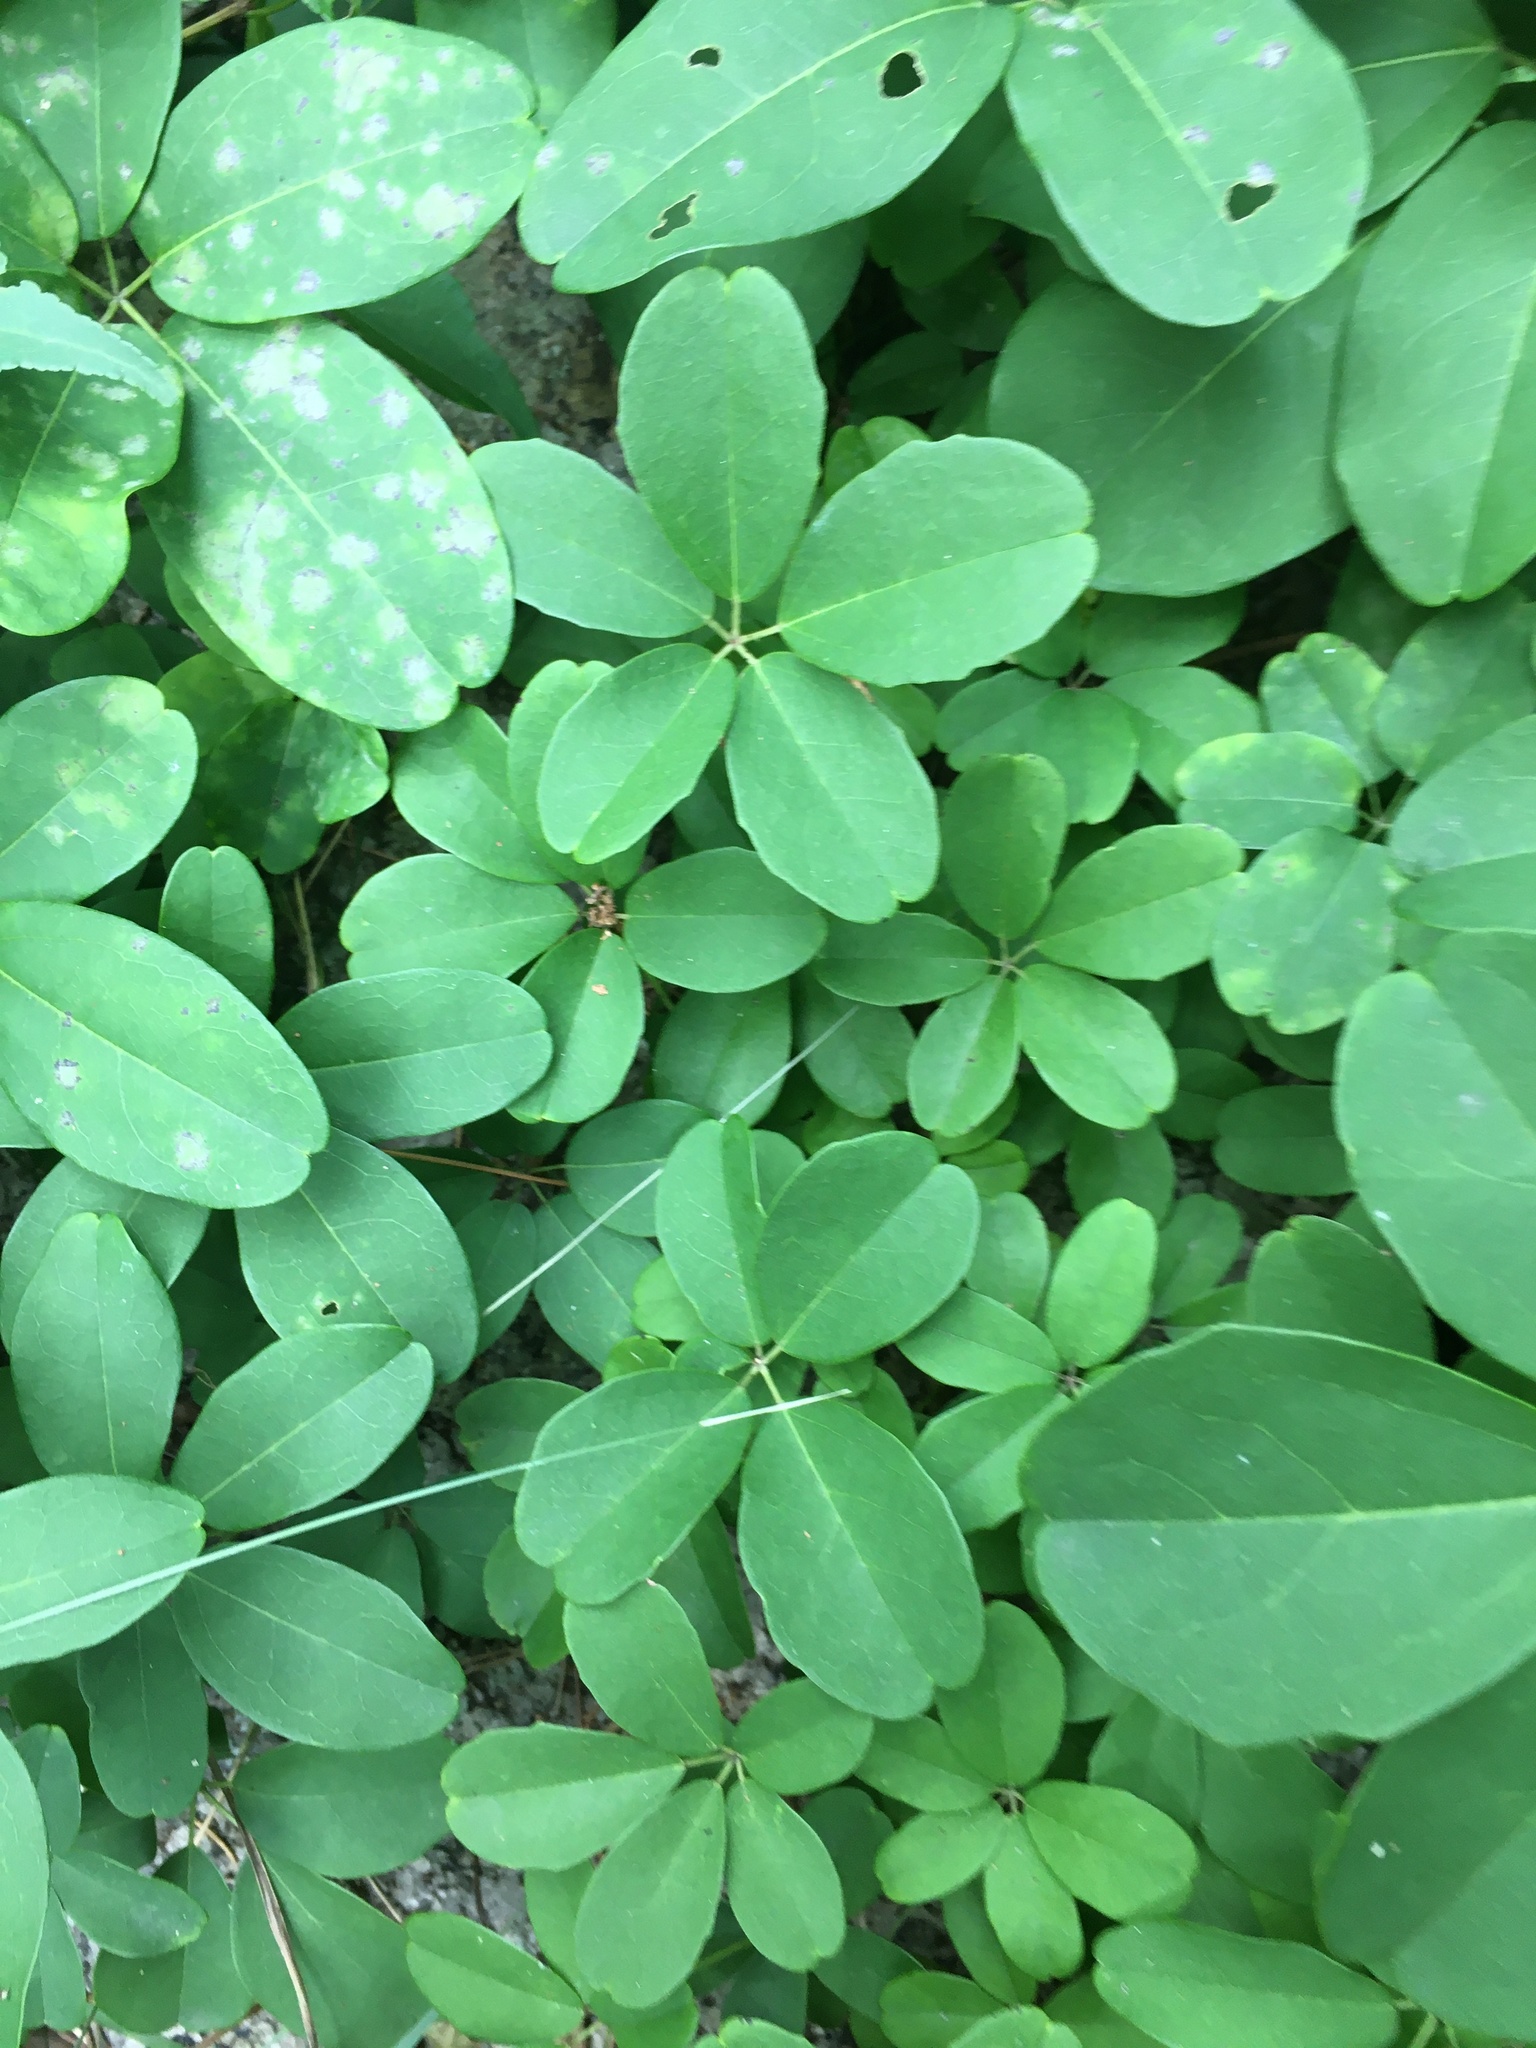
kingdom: Plantae
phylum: Tracheophyta
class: Magnoliopsida
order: Ranunculales
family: Lardizabalaceae
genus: Akebia
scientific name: Akebia quinata
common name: Five-leaf akebia
